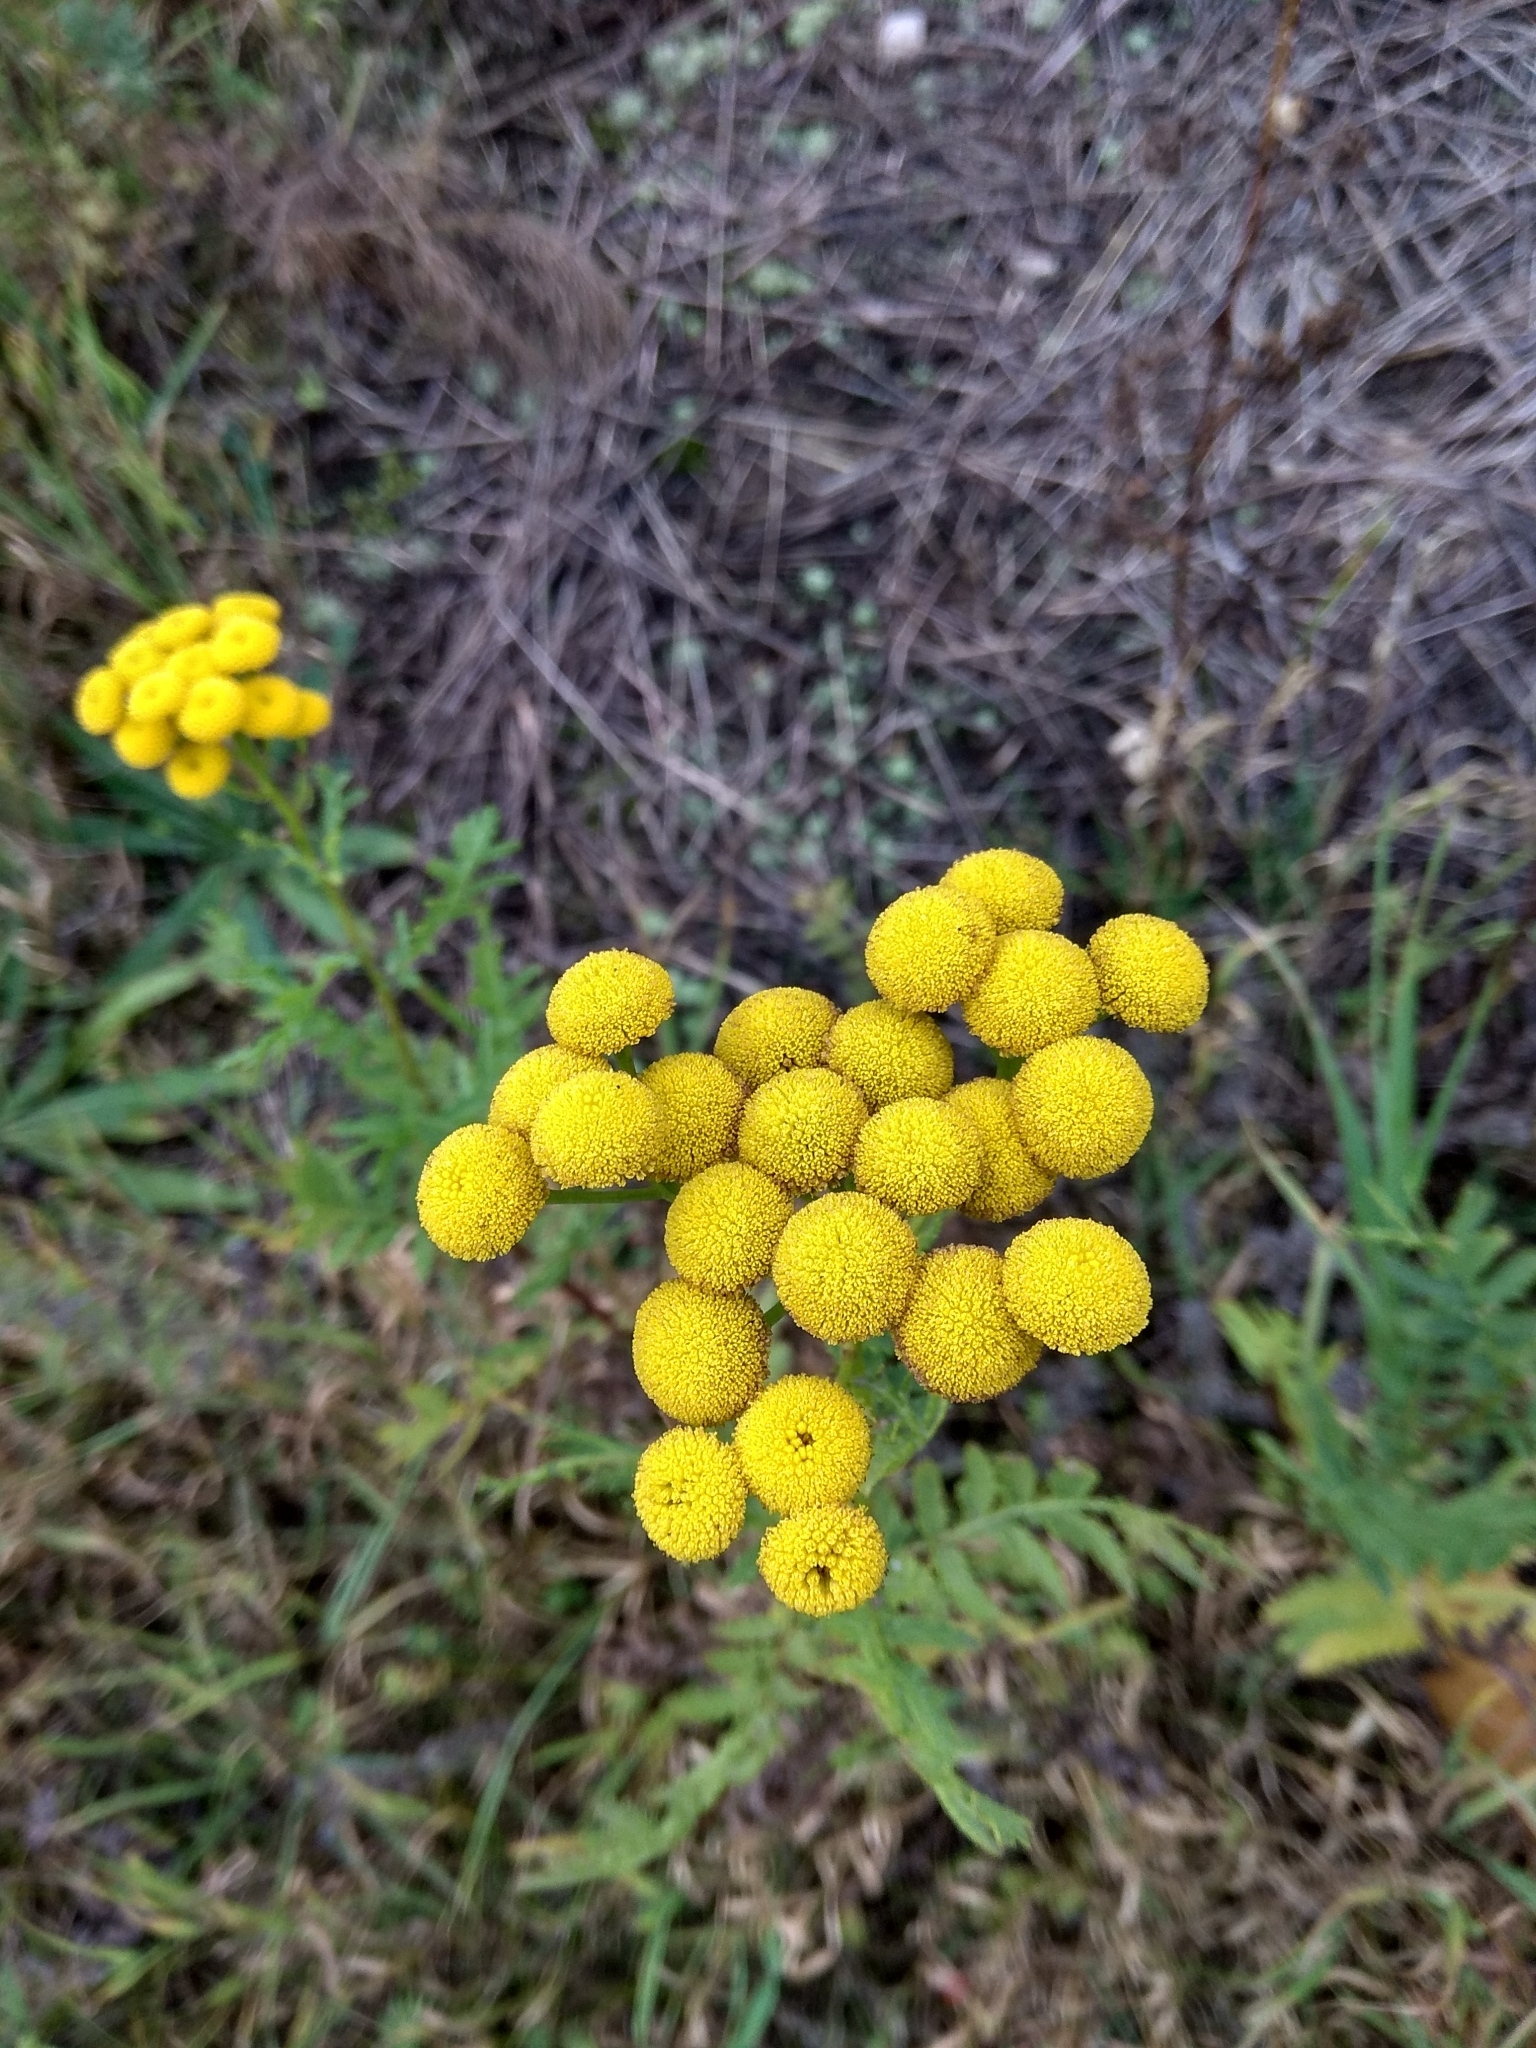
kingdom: Plantae
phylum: Tracheophyta
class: Magnoliopsida
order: Asterales
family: Asteraceae
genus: Tanacetum
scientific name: Tanacetum vulgare
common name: Common tansy
